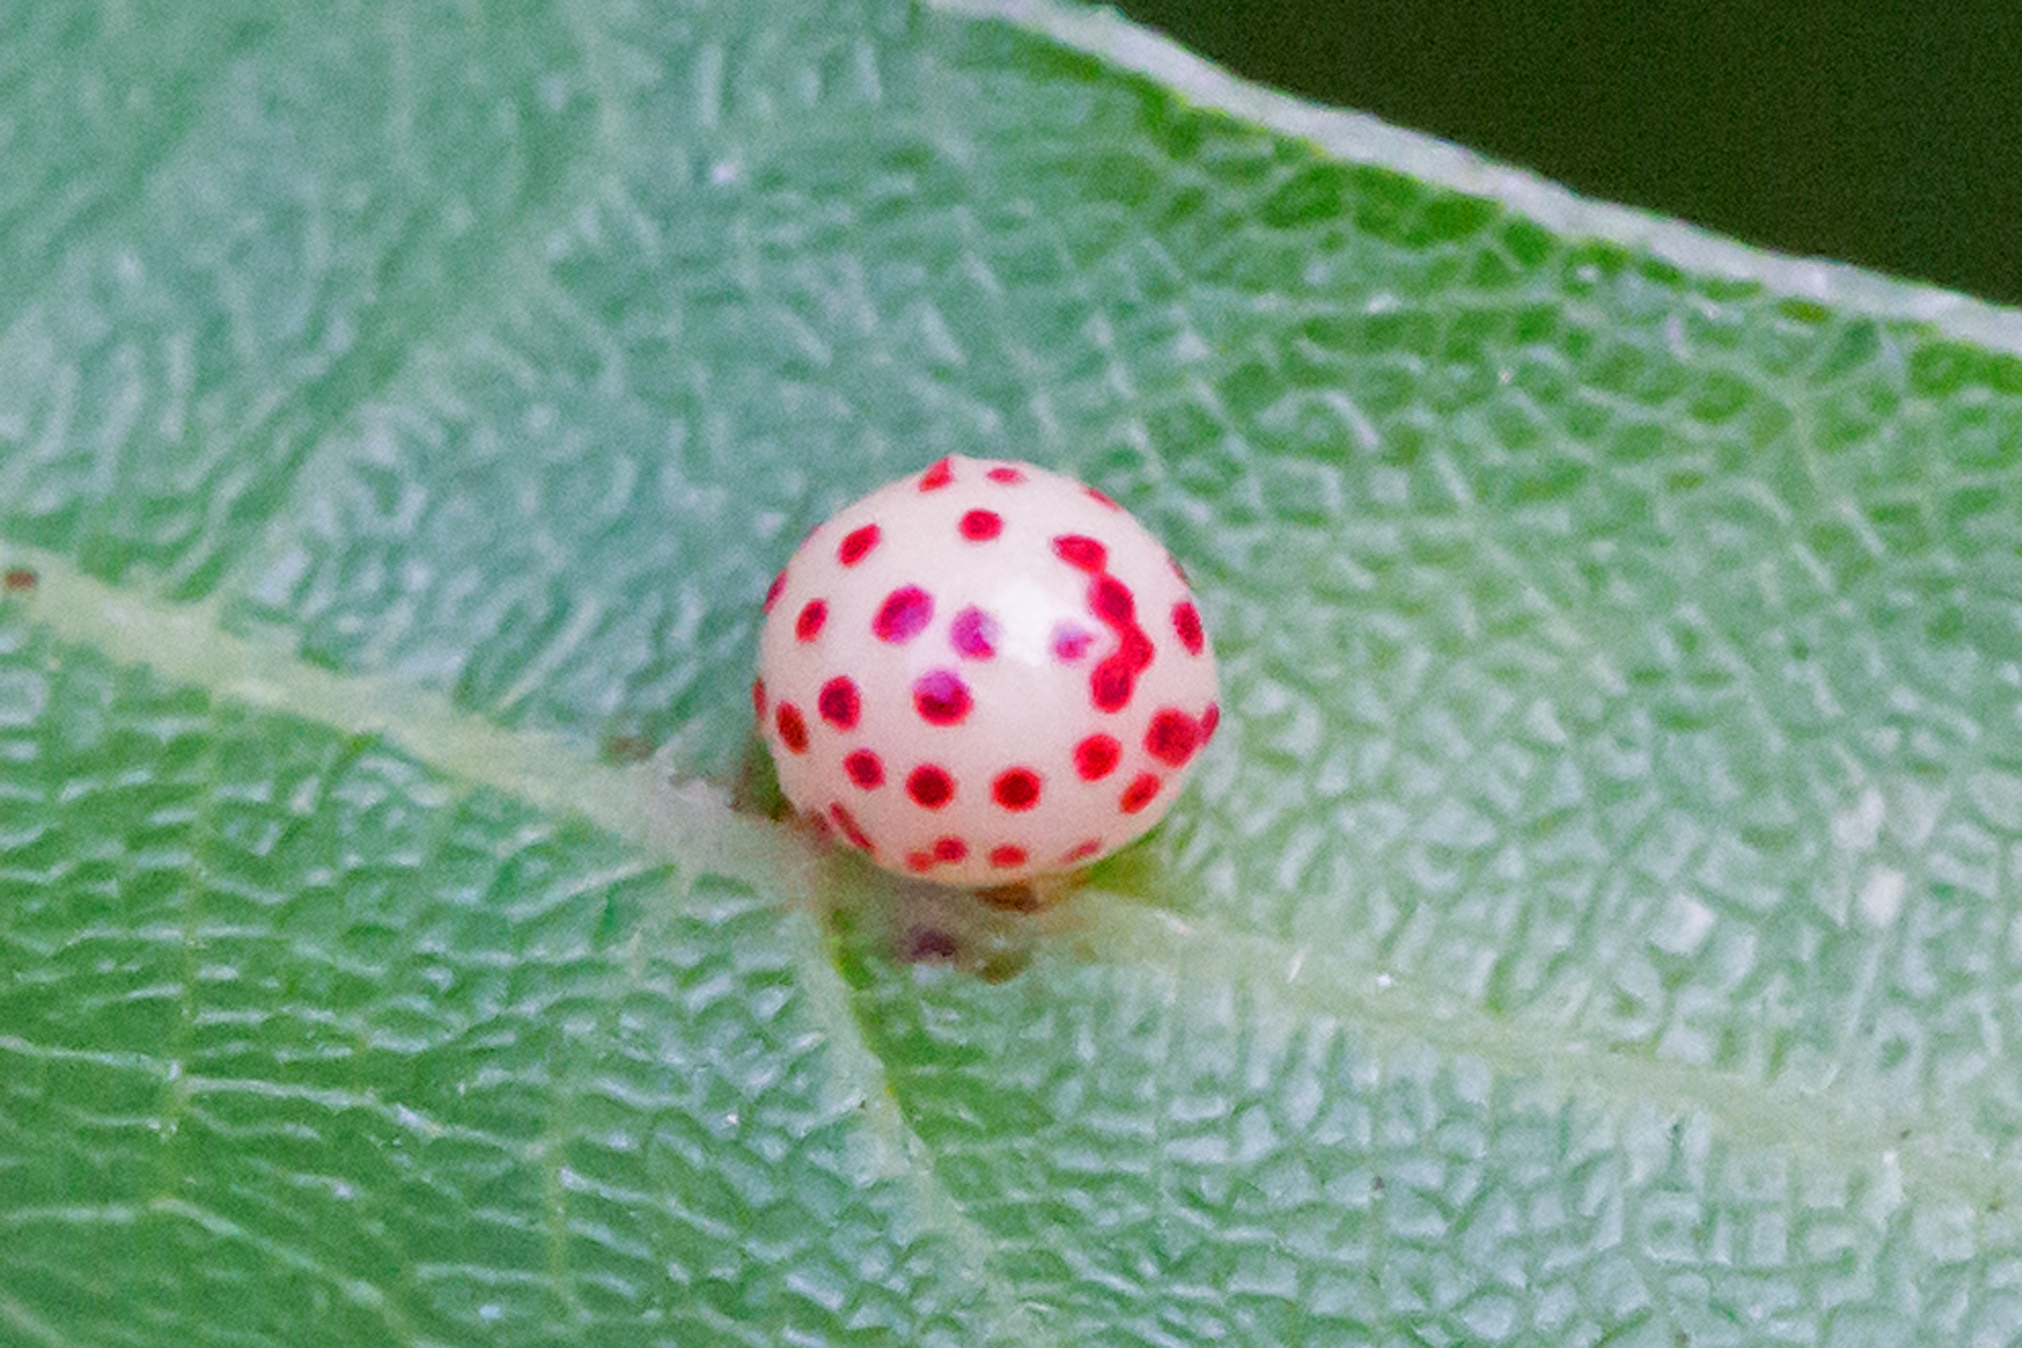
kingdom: Animalia
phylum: Arthropoda
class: Insecta
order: Hymenoptera
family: Cynipidae
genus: Zopheroteras
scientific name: Zopheroteras
